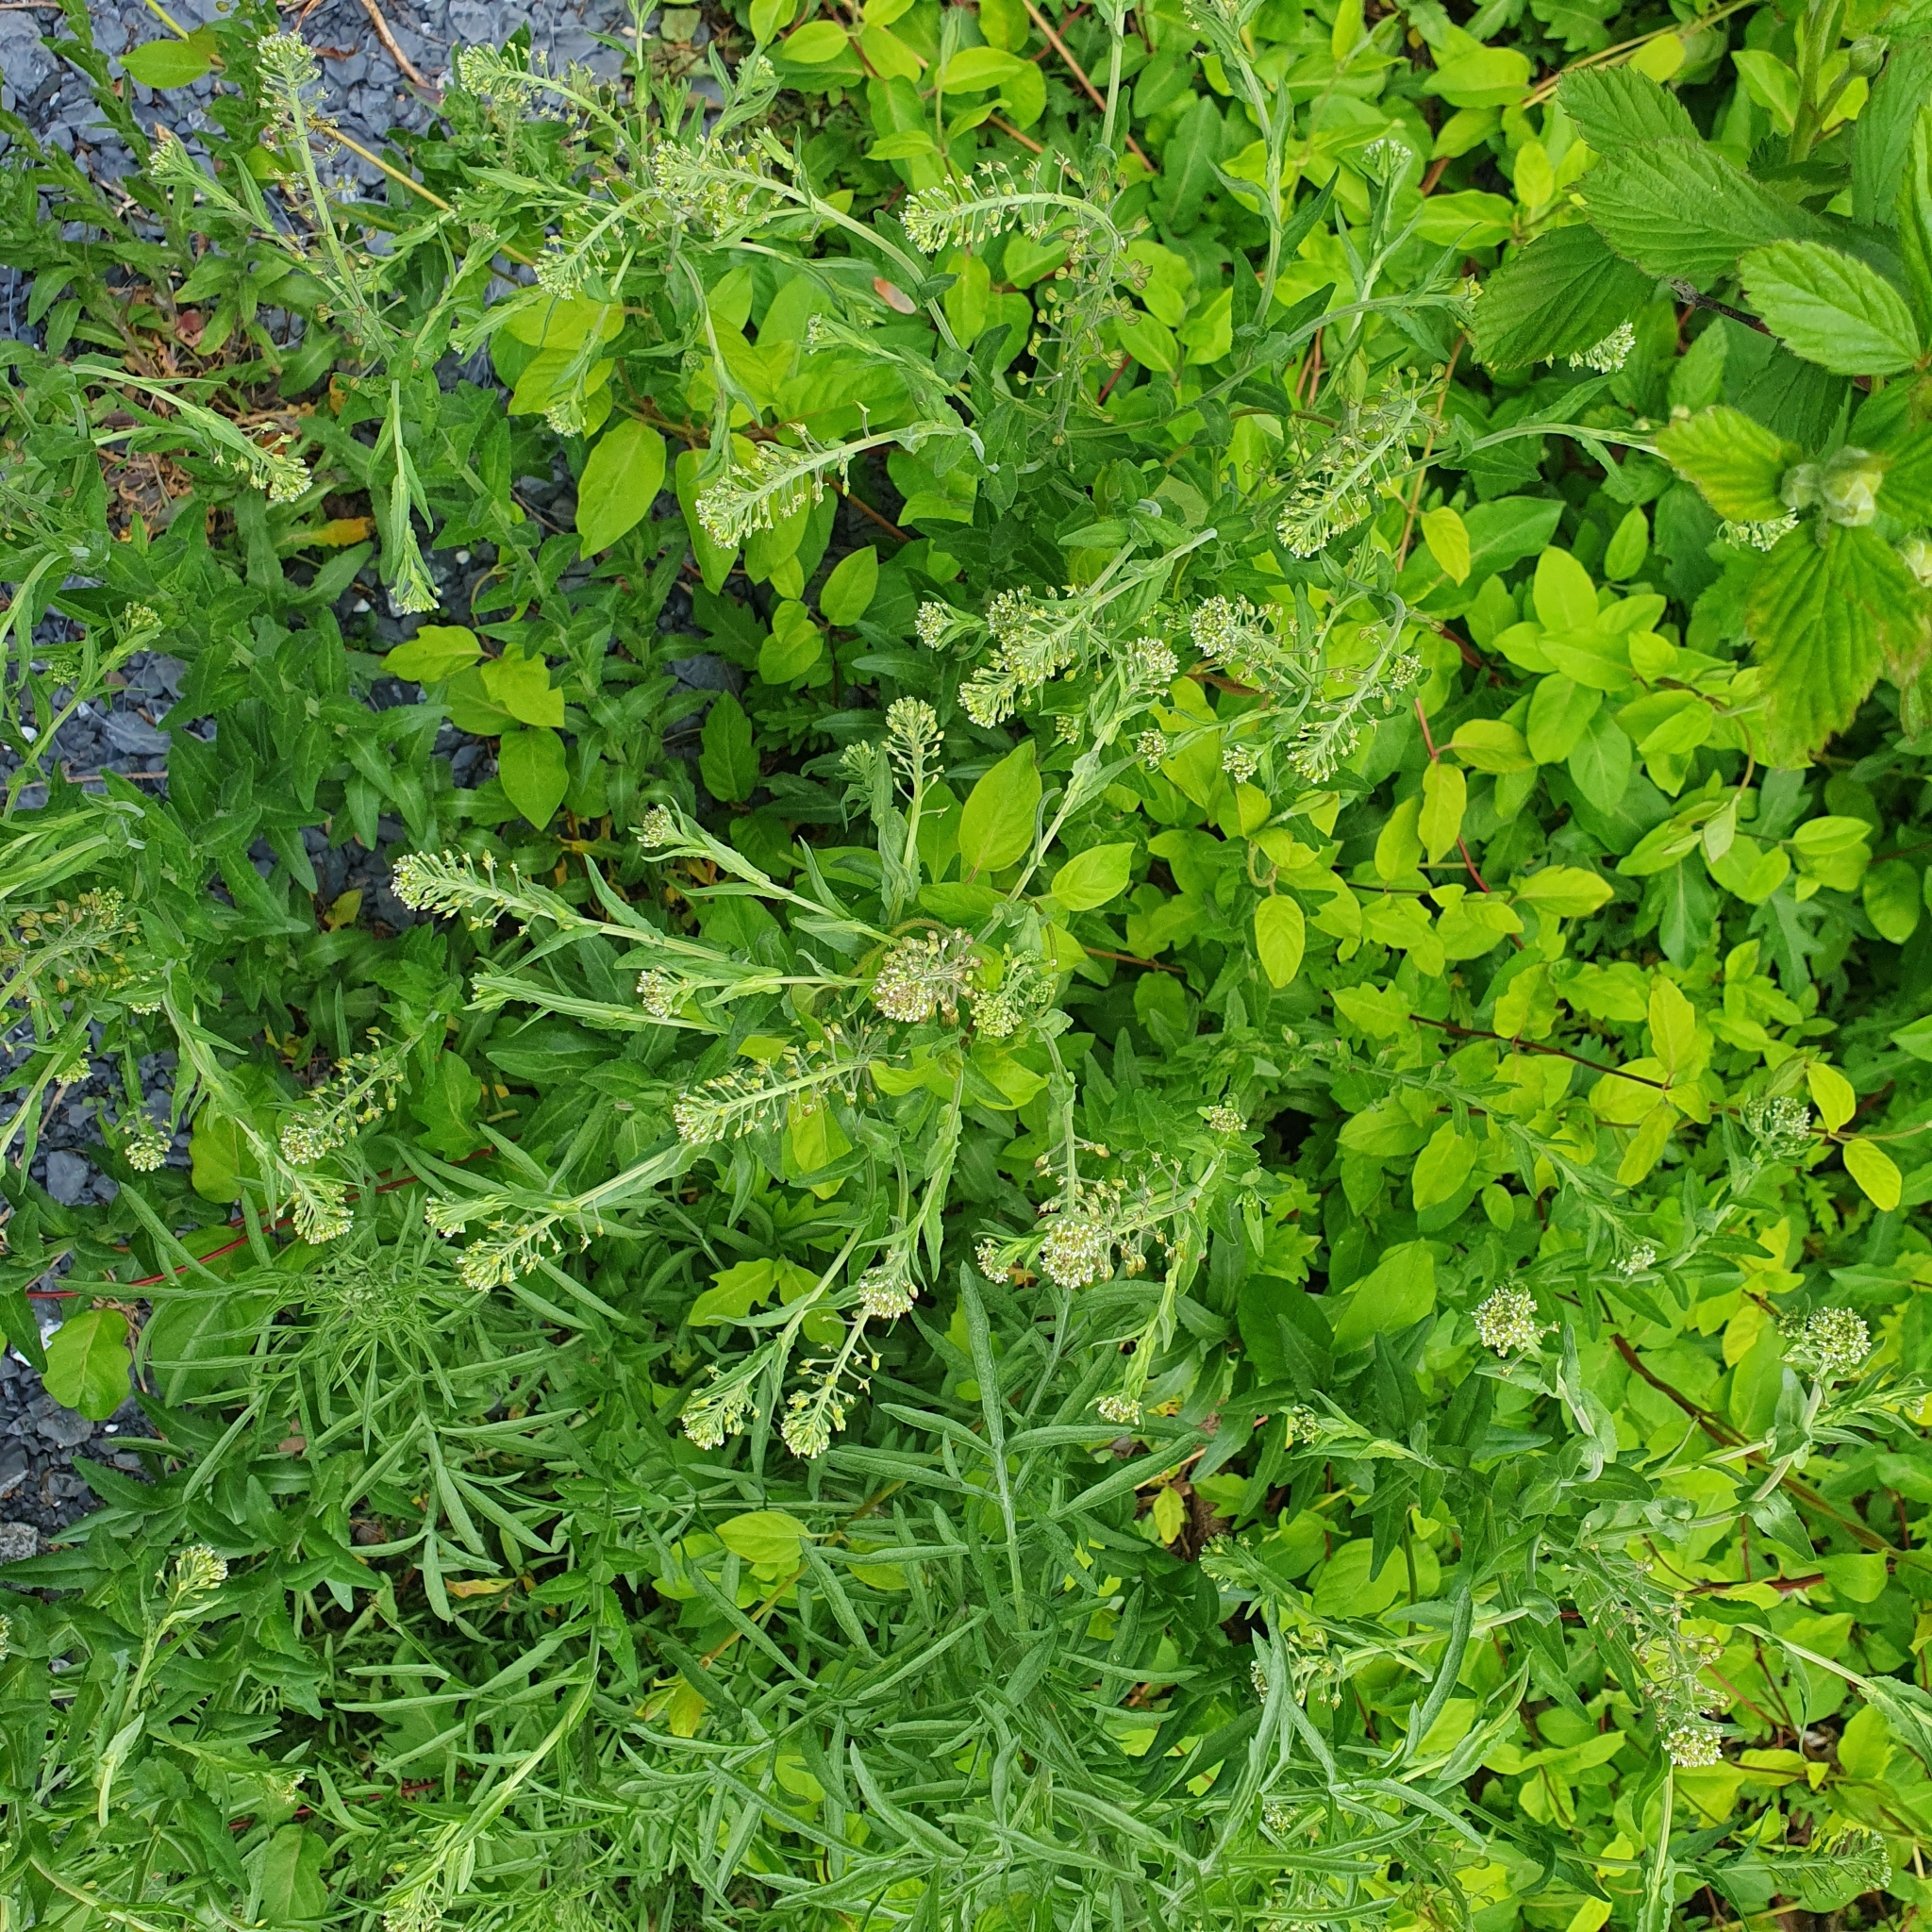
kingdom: Plantae
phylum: Tracheophyta
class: Magnoliopsida
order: Brassicales
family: Brassicaceae
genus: Lepidium
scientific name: Lepidium campestre
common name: Field pepperwort
